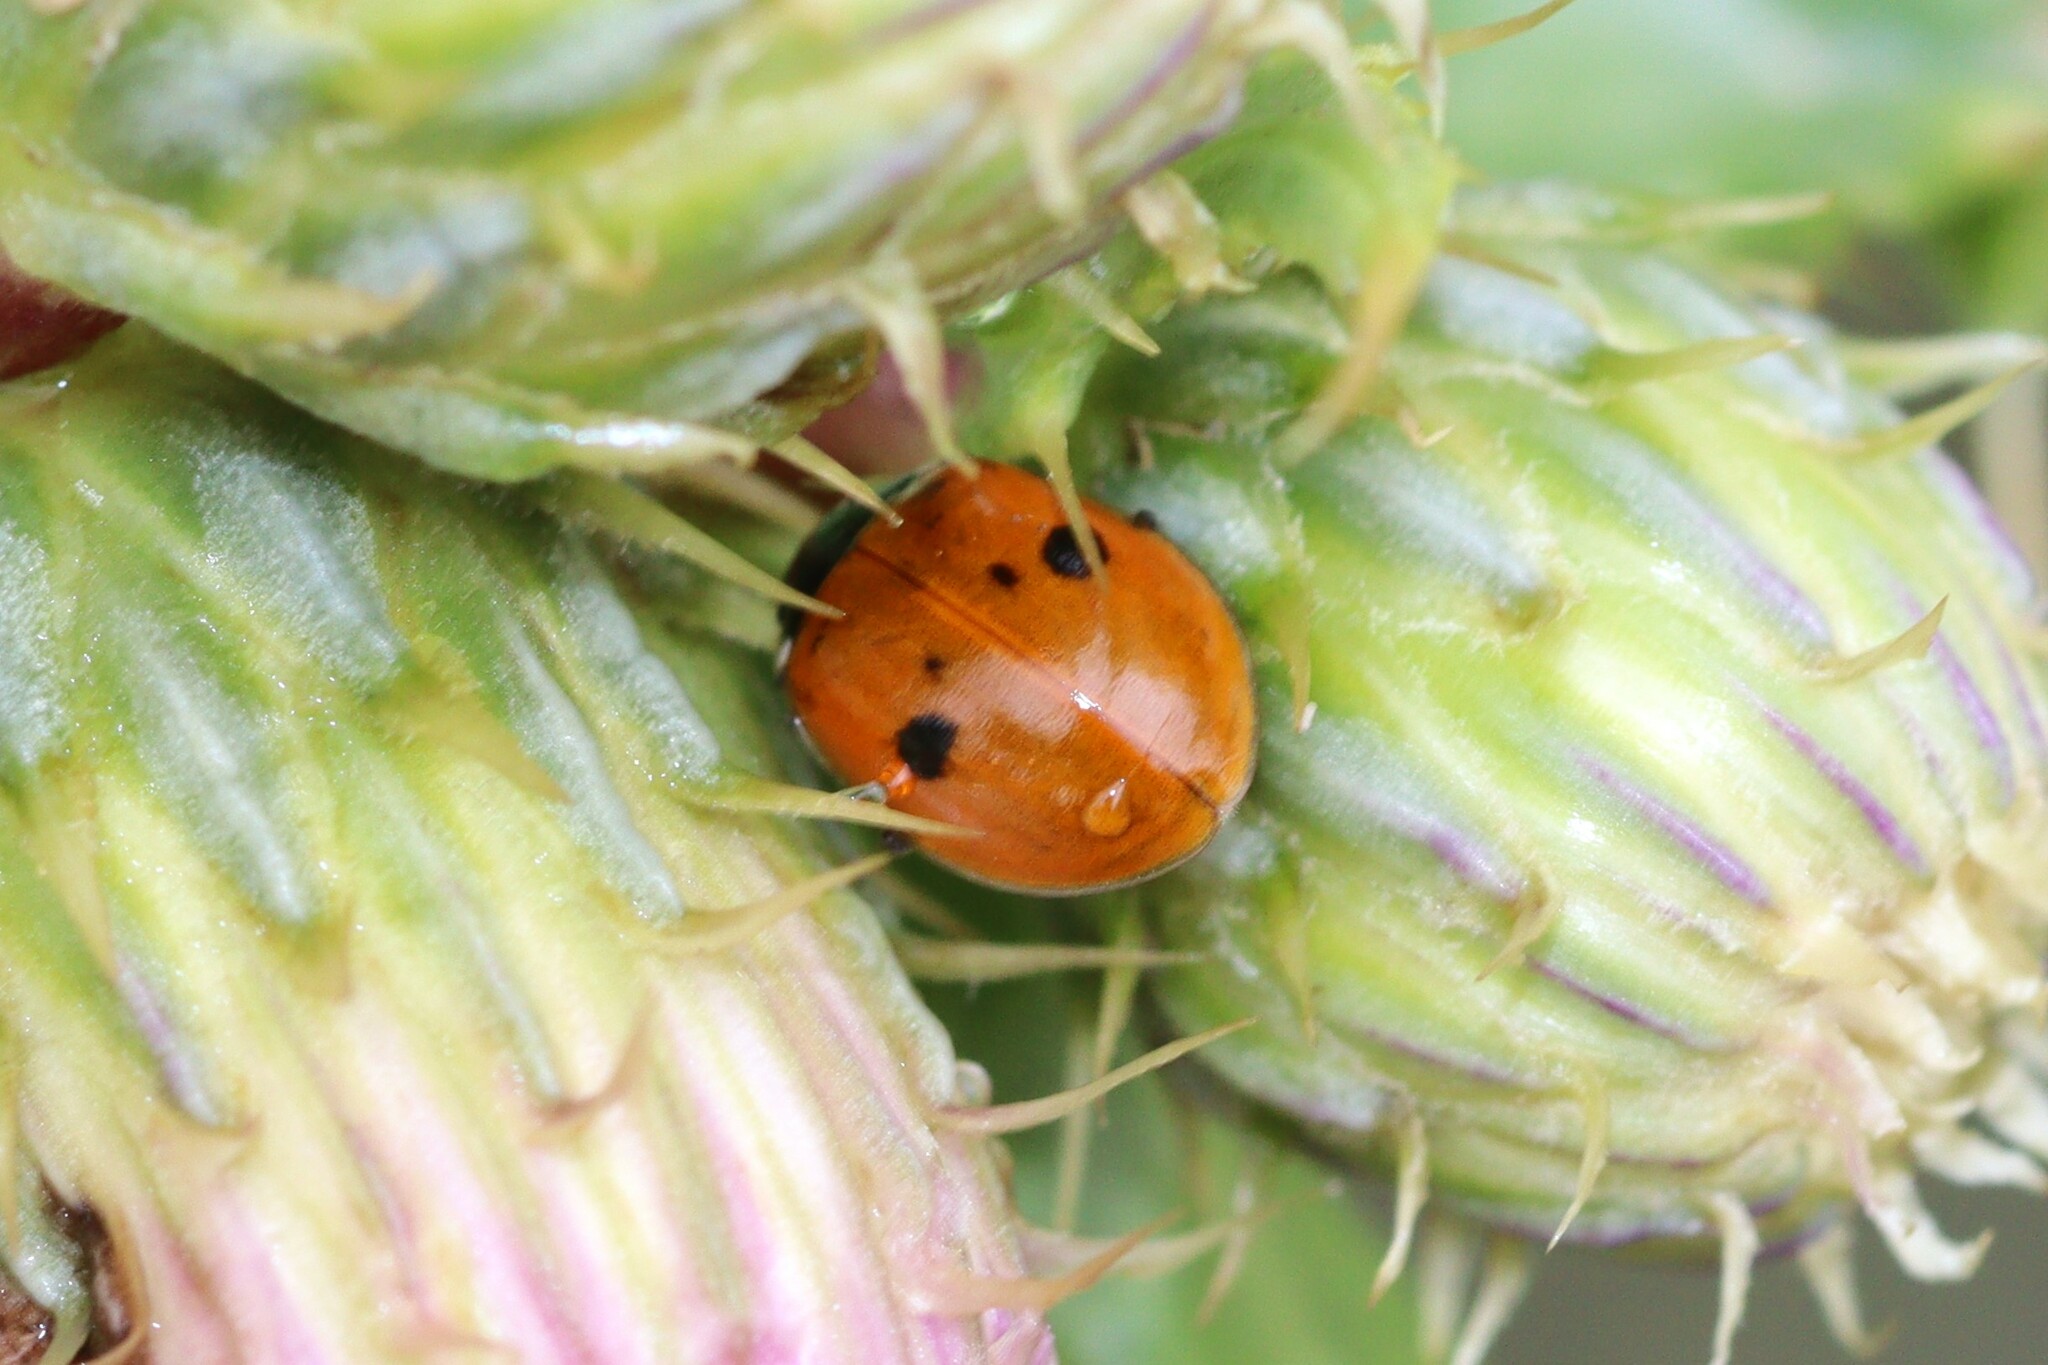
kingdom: Animalia
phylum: Arthropoda
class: Insecta
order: Coleoptera
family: Coccinellidae
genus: Adalia
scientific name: Adalia tetraspilota
